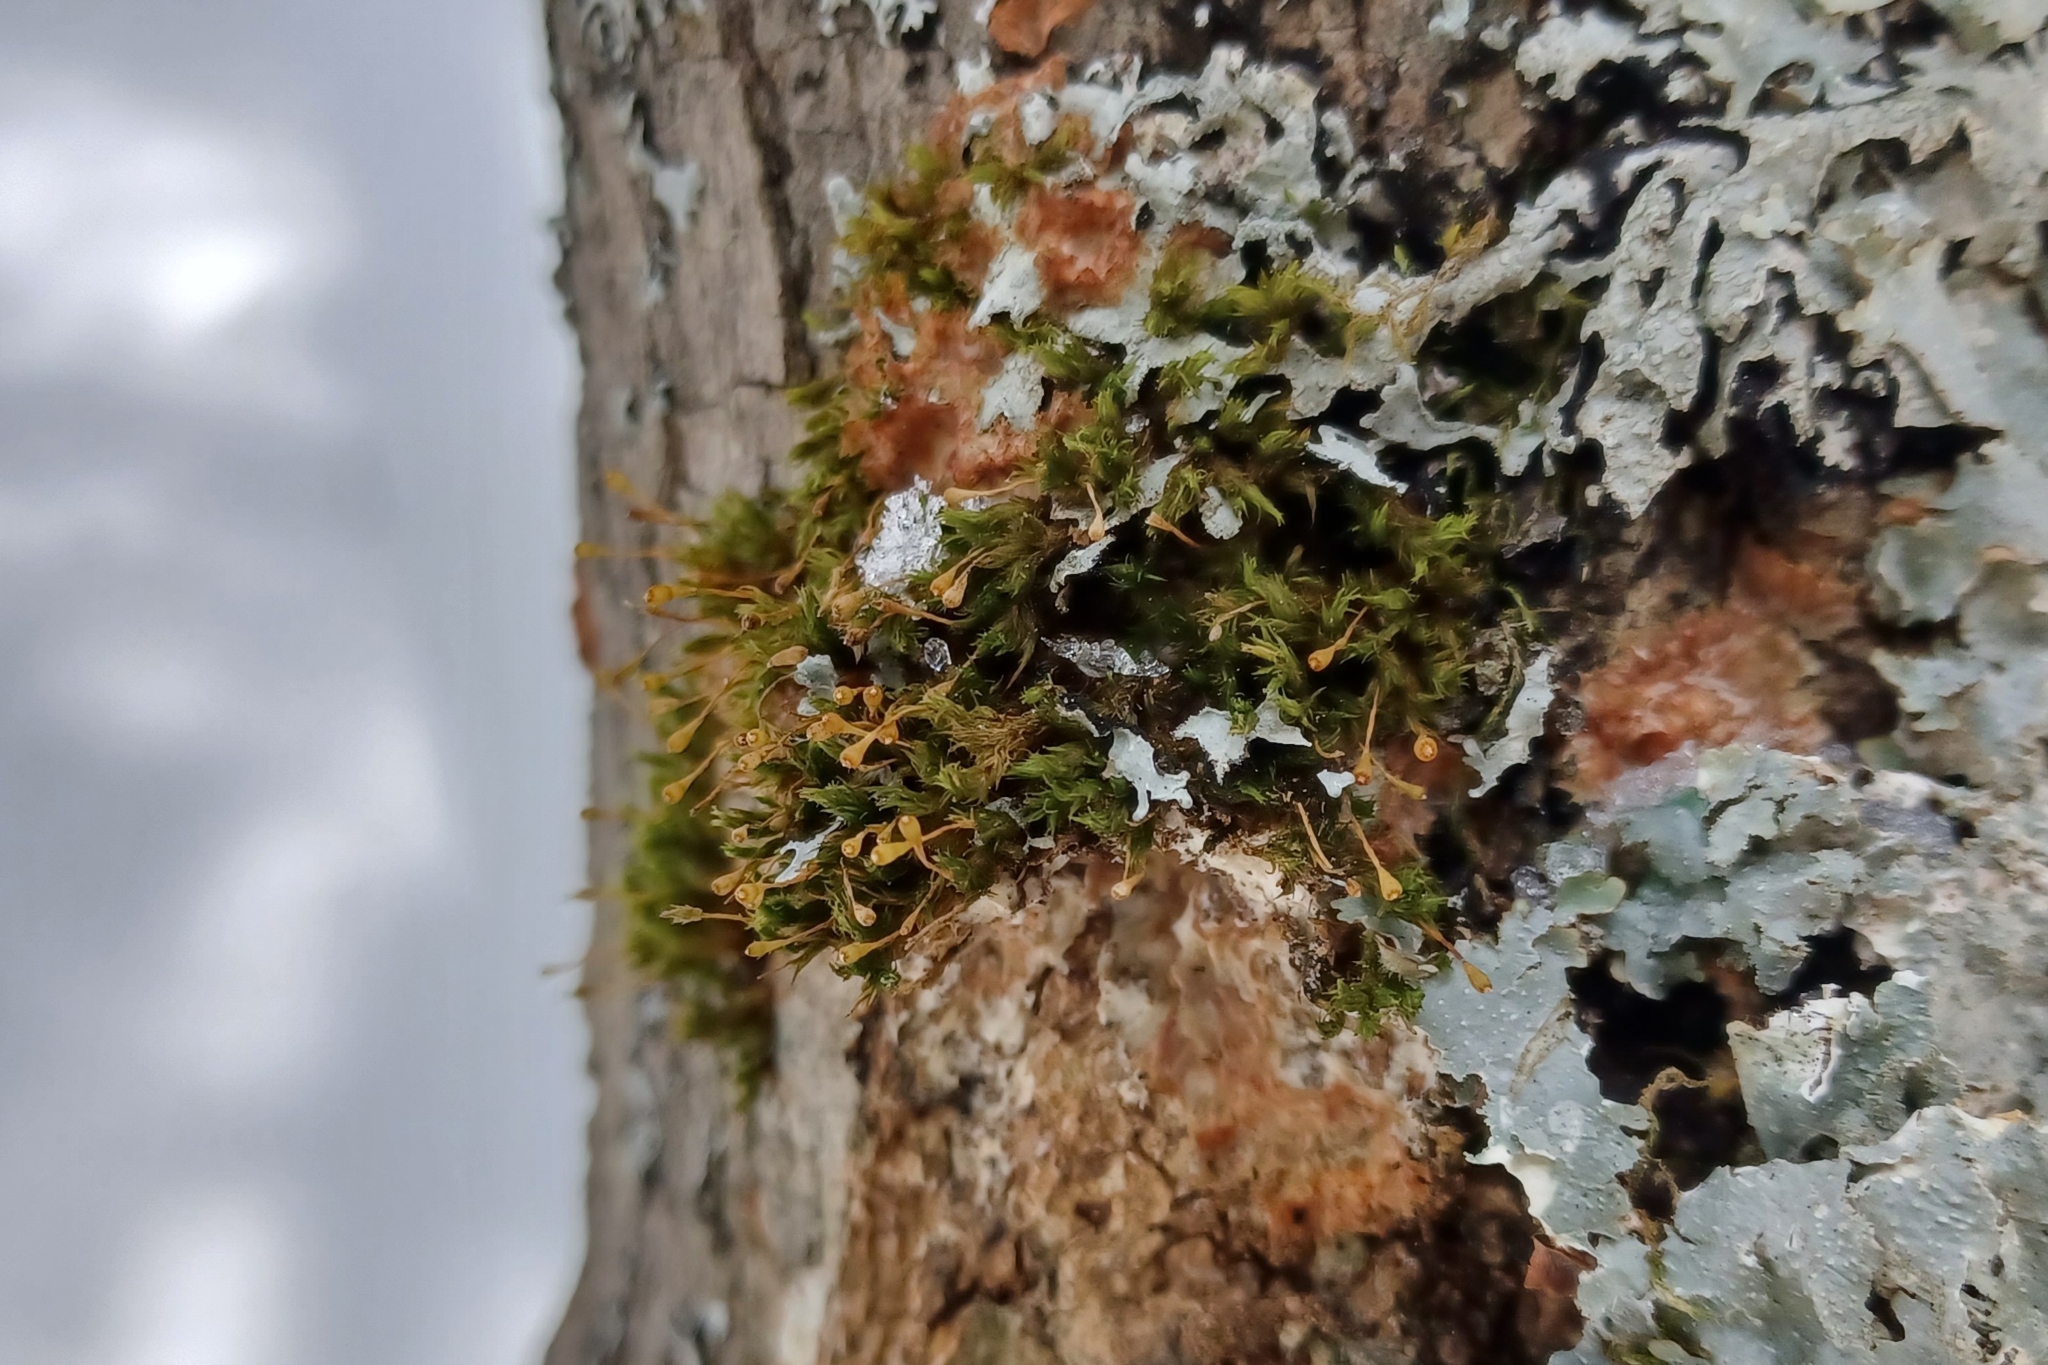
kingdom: Plantae
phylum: Bryophyta
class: Bryopsida
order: Orthotrichales
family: Orthotrichaceae
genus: Ulota
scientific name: Ulota coarctata
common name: Club pincushion moss
